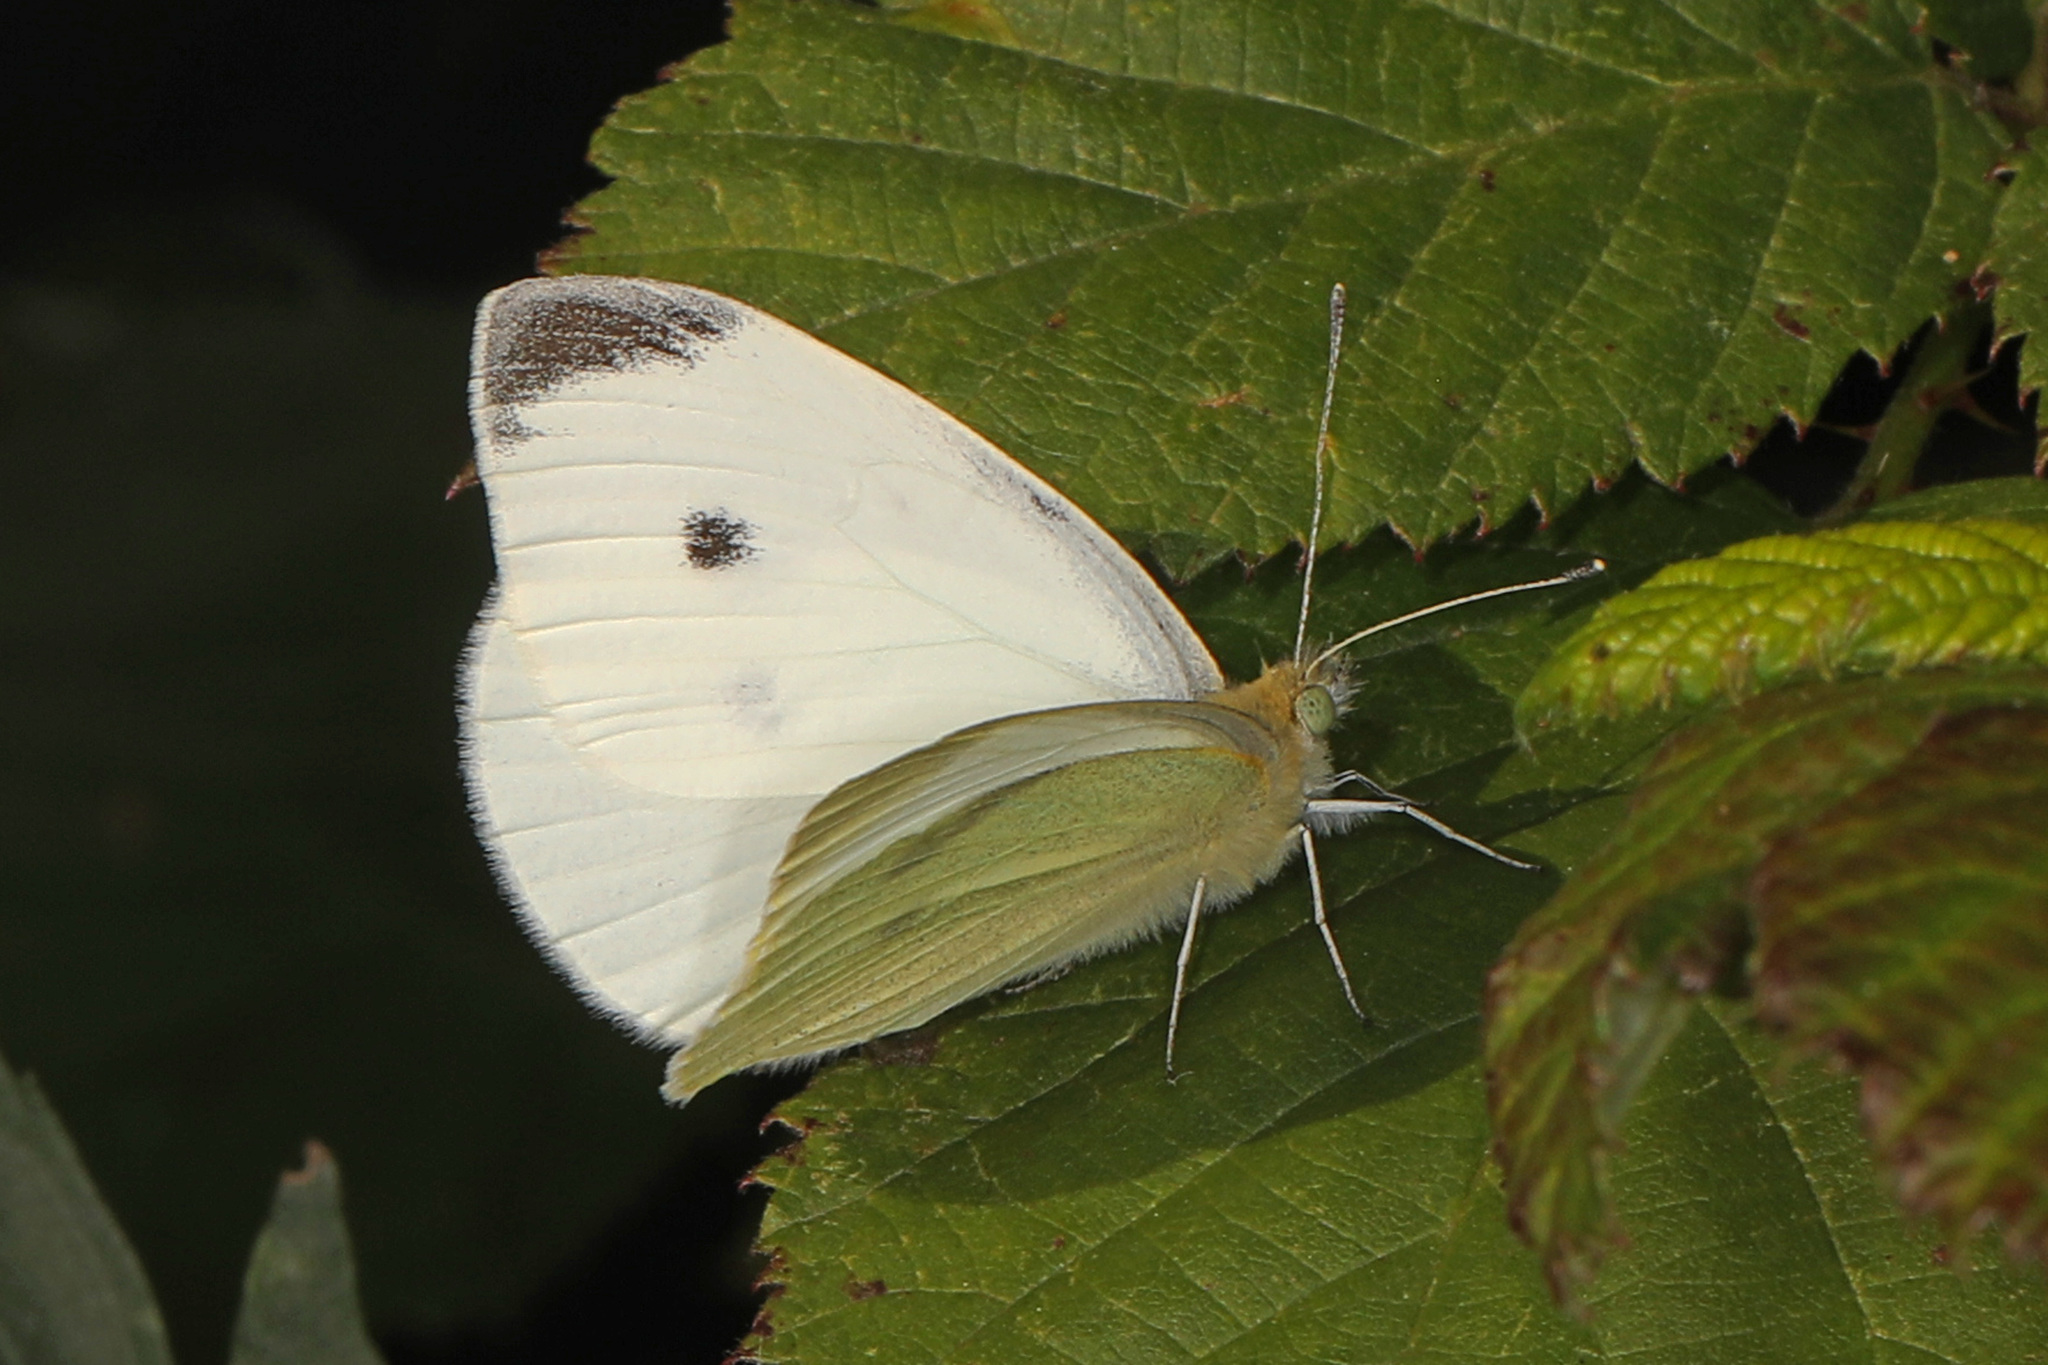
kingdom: Animalia
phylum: Arthropoda
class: Insecta
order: Lepidoptera
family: Pieridae
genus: Pieris
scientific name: Pieris rapae
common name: Small white
